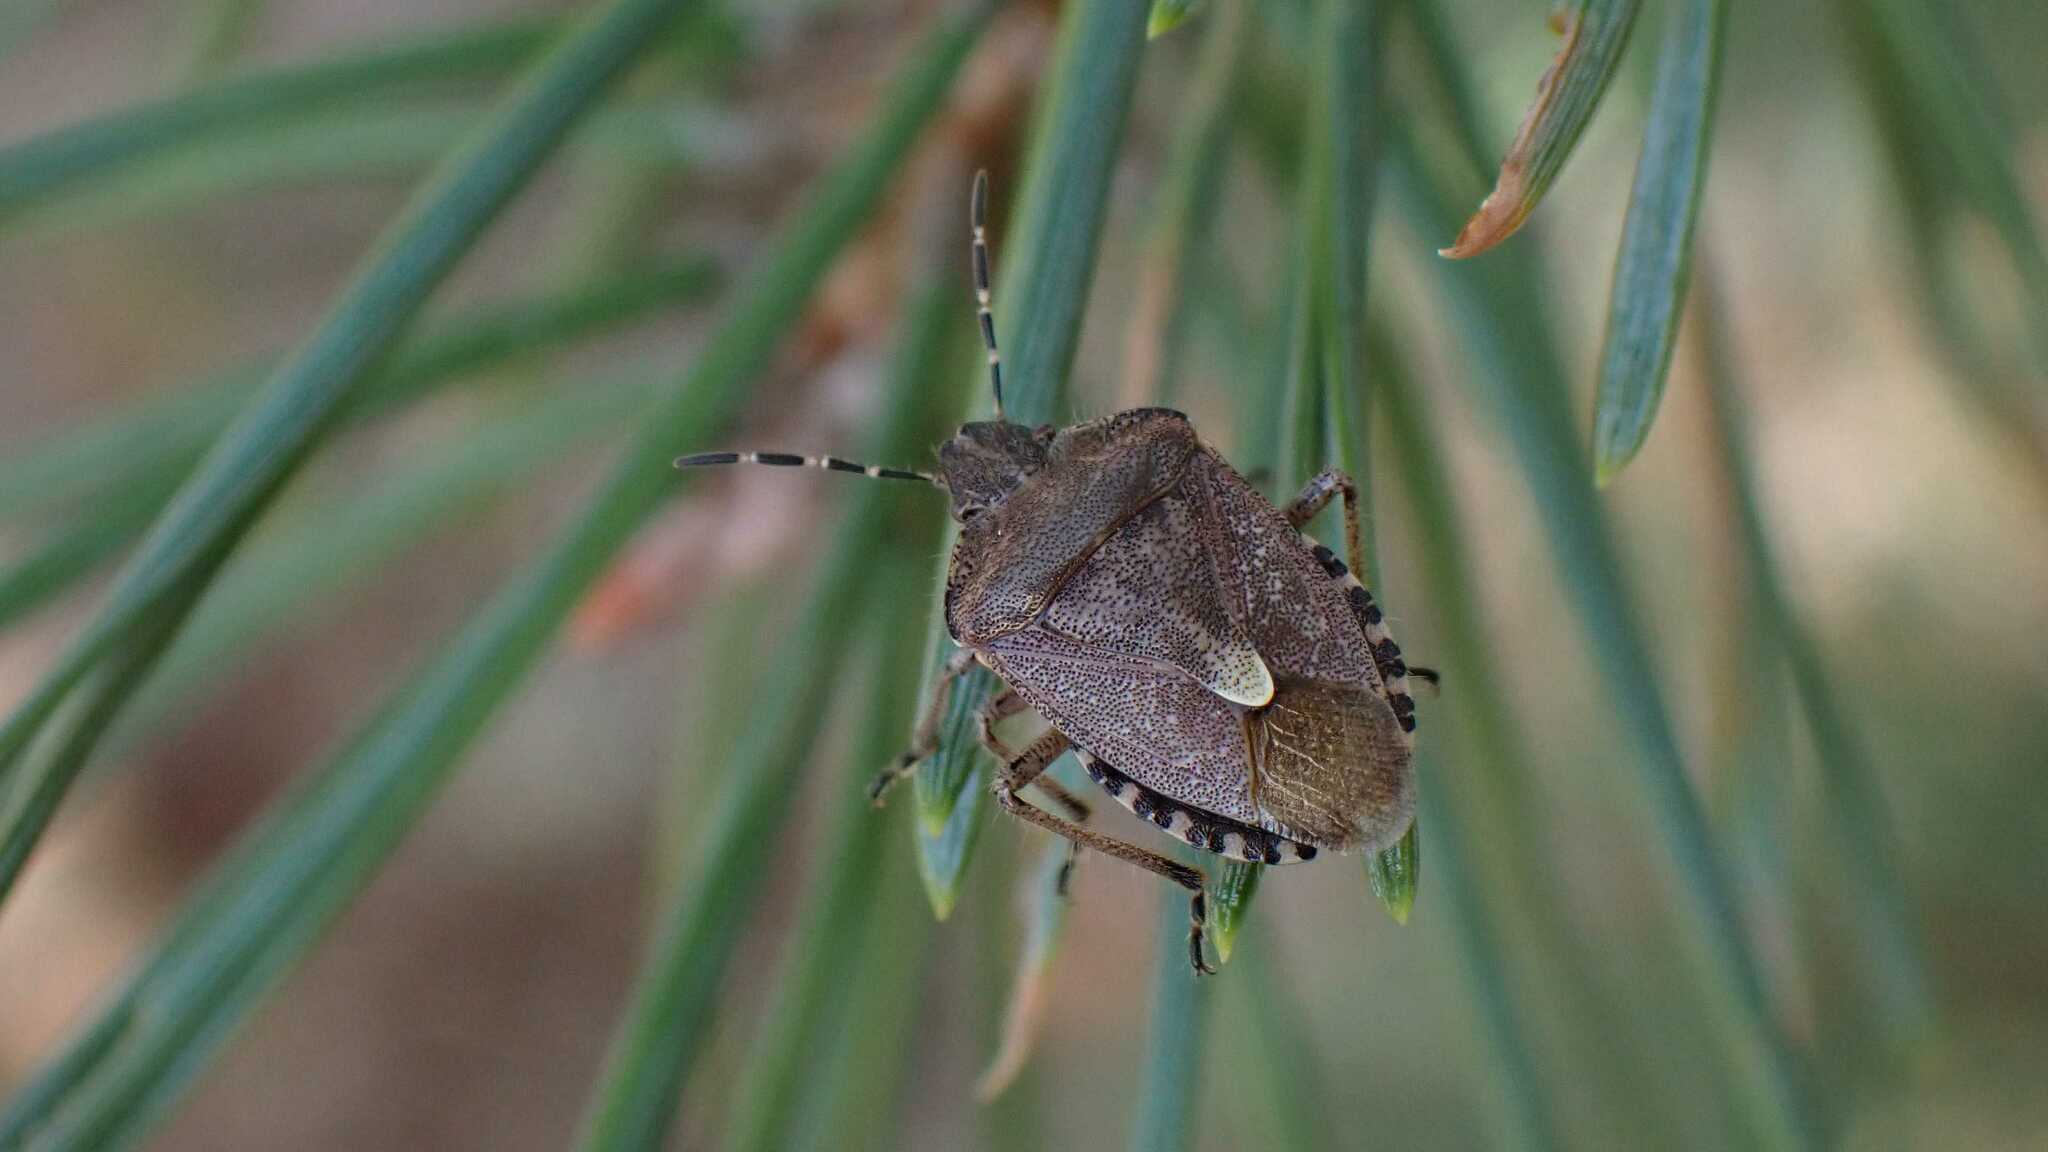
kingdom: Animalia
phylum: Arthropoda
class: Insecta
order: Hemiptera
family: Pentatomidae
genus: Dolycoris
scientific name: Dolycoris baccarum
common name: Sloe bug
